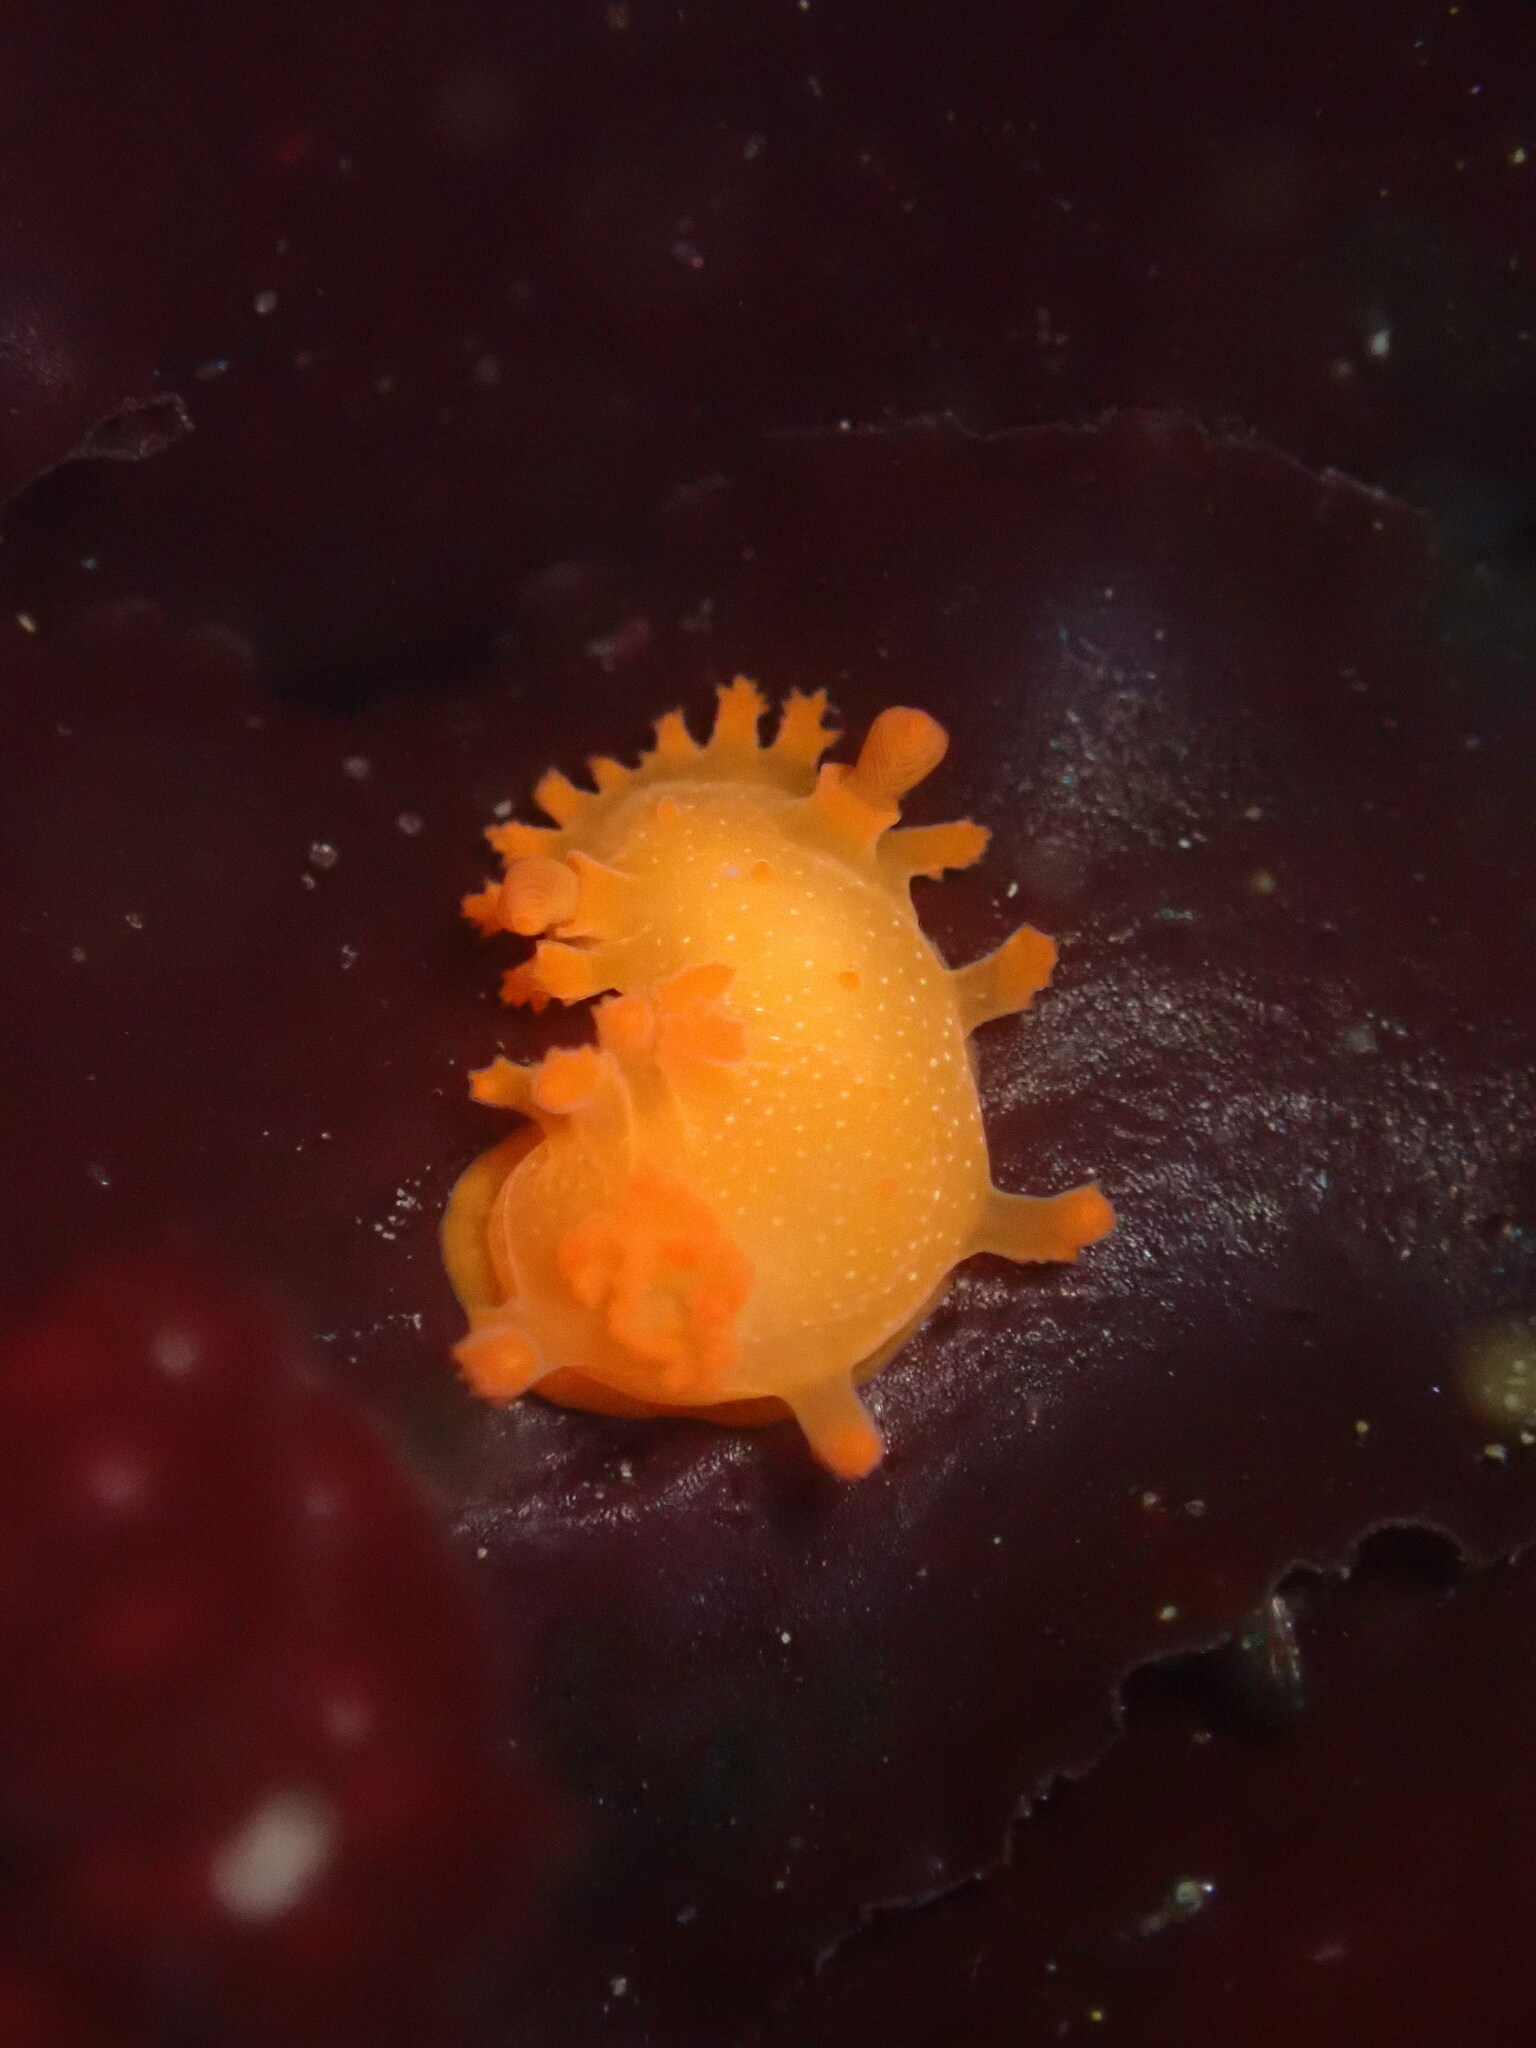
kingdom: Animalia
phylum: Mollusca
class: Gastropoda
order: Nudibranchia
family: Polyceridae
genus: Triopha
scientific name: Triopha maculata
